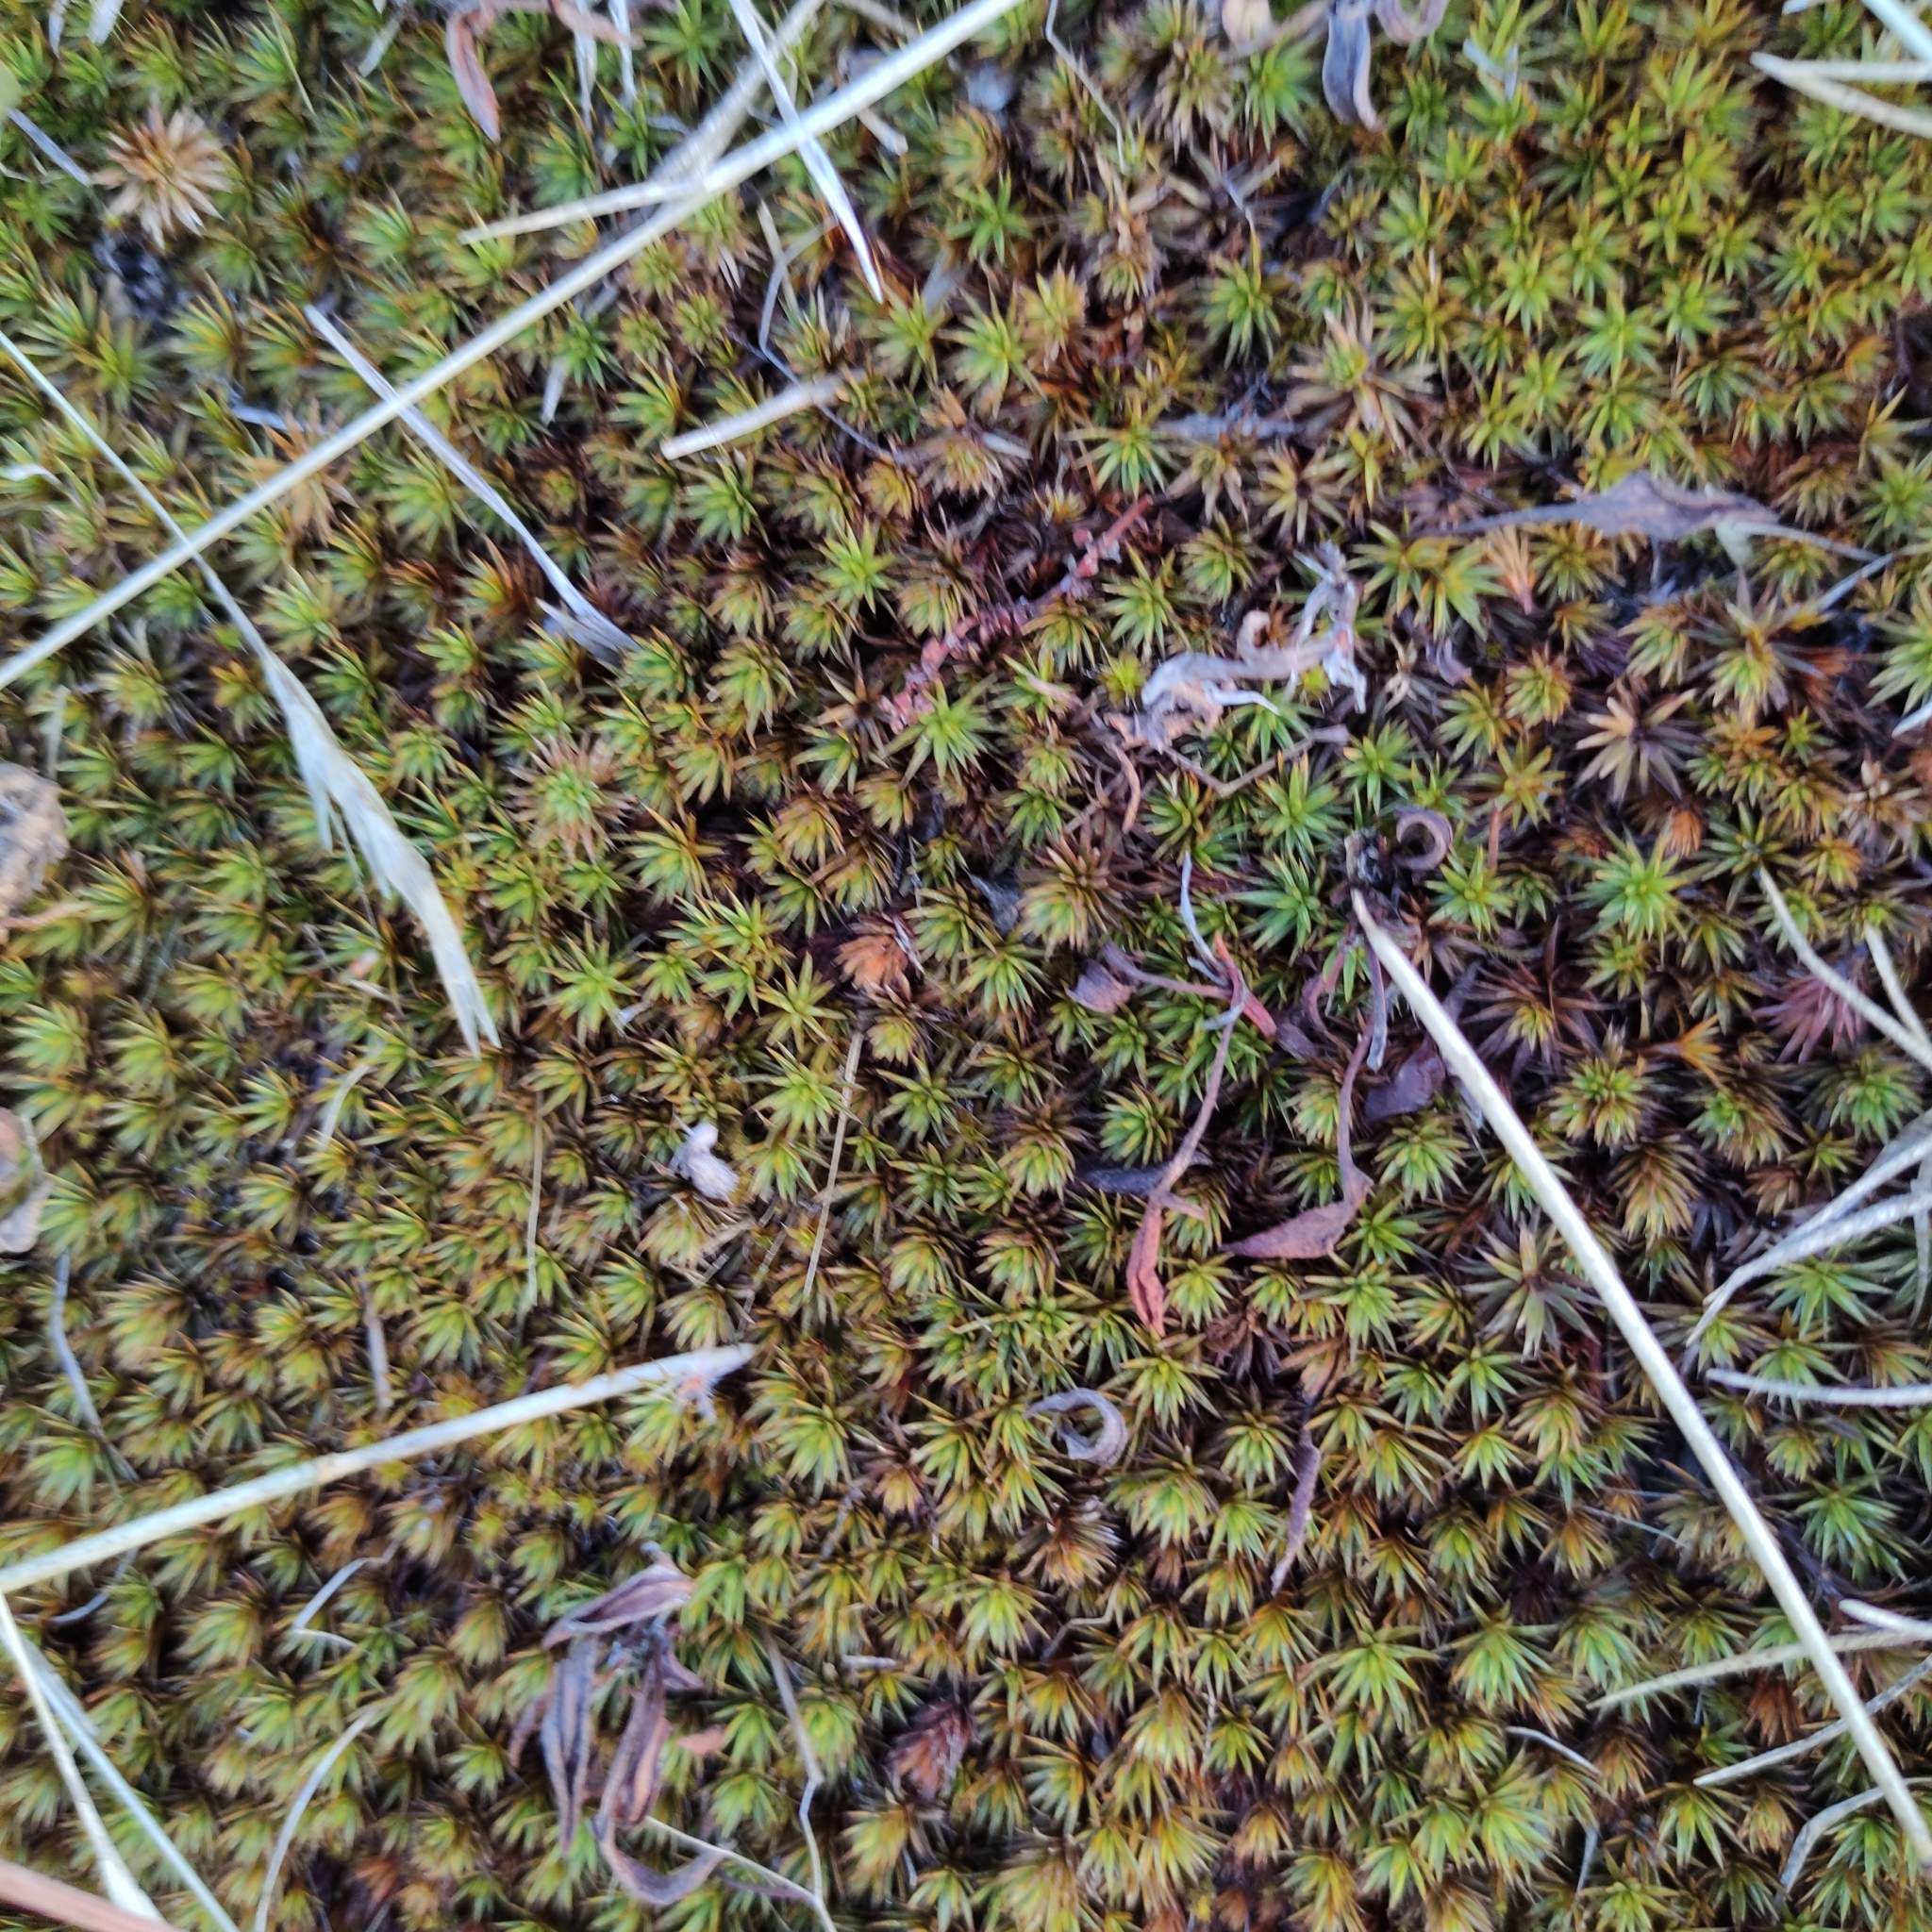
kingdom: Plantae
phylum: Bryophyta
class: Polytrichopsida
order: Polytrichales
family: Polytrichaceae
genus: Polytrichum
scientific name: Polytrichum juniperinum
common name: Juniper haircap moss
